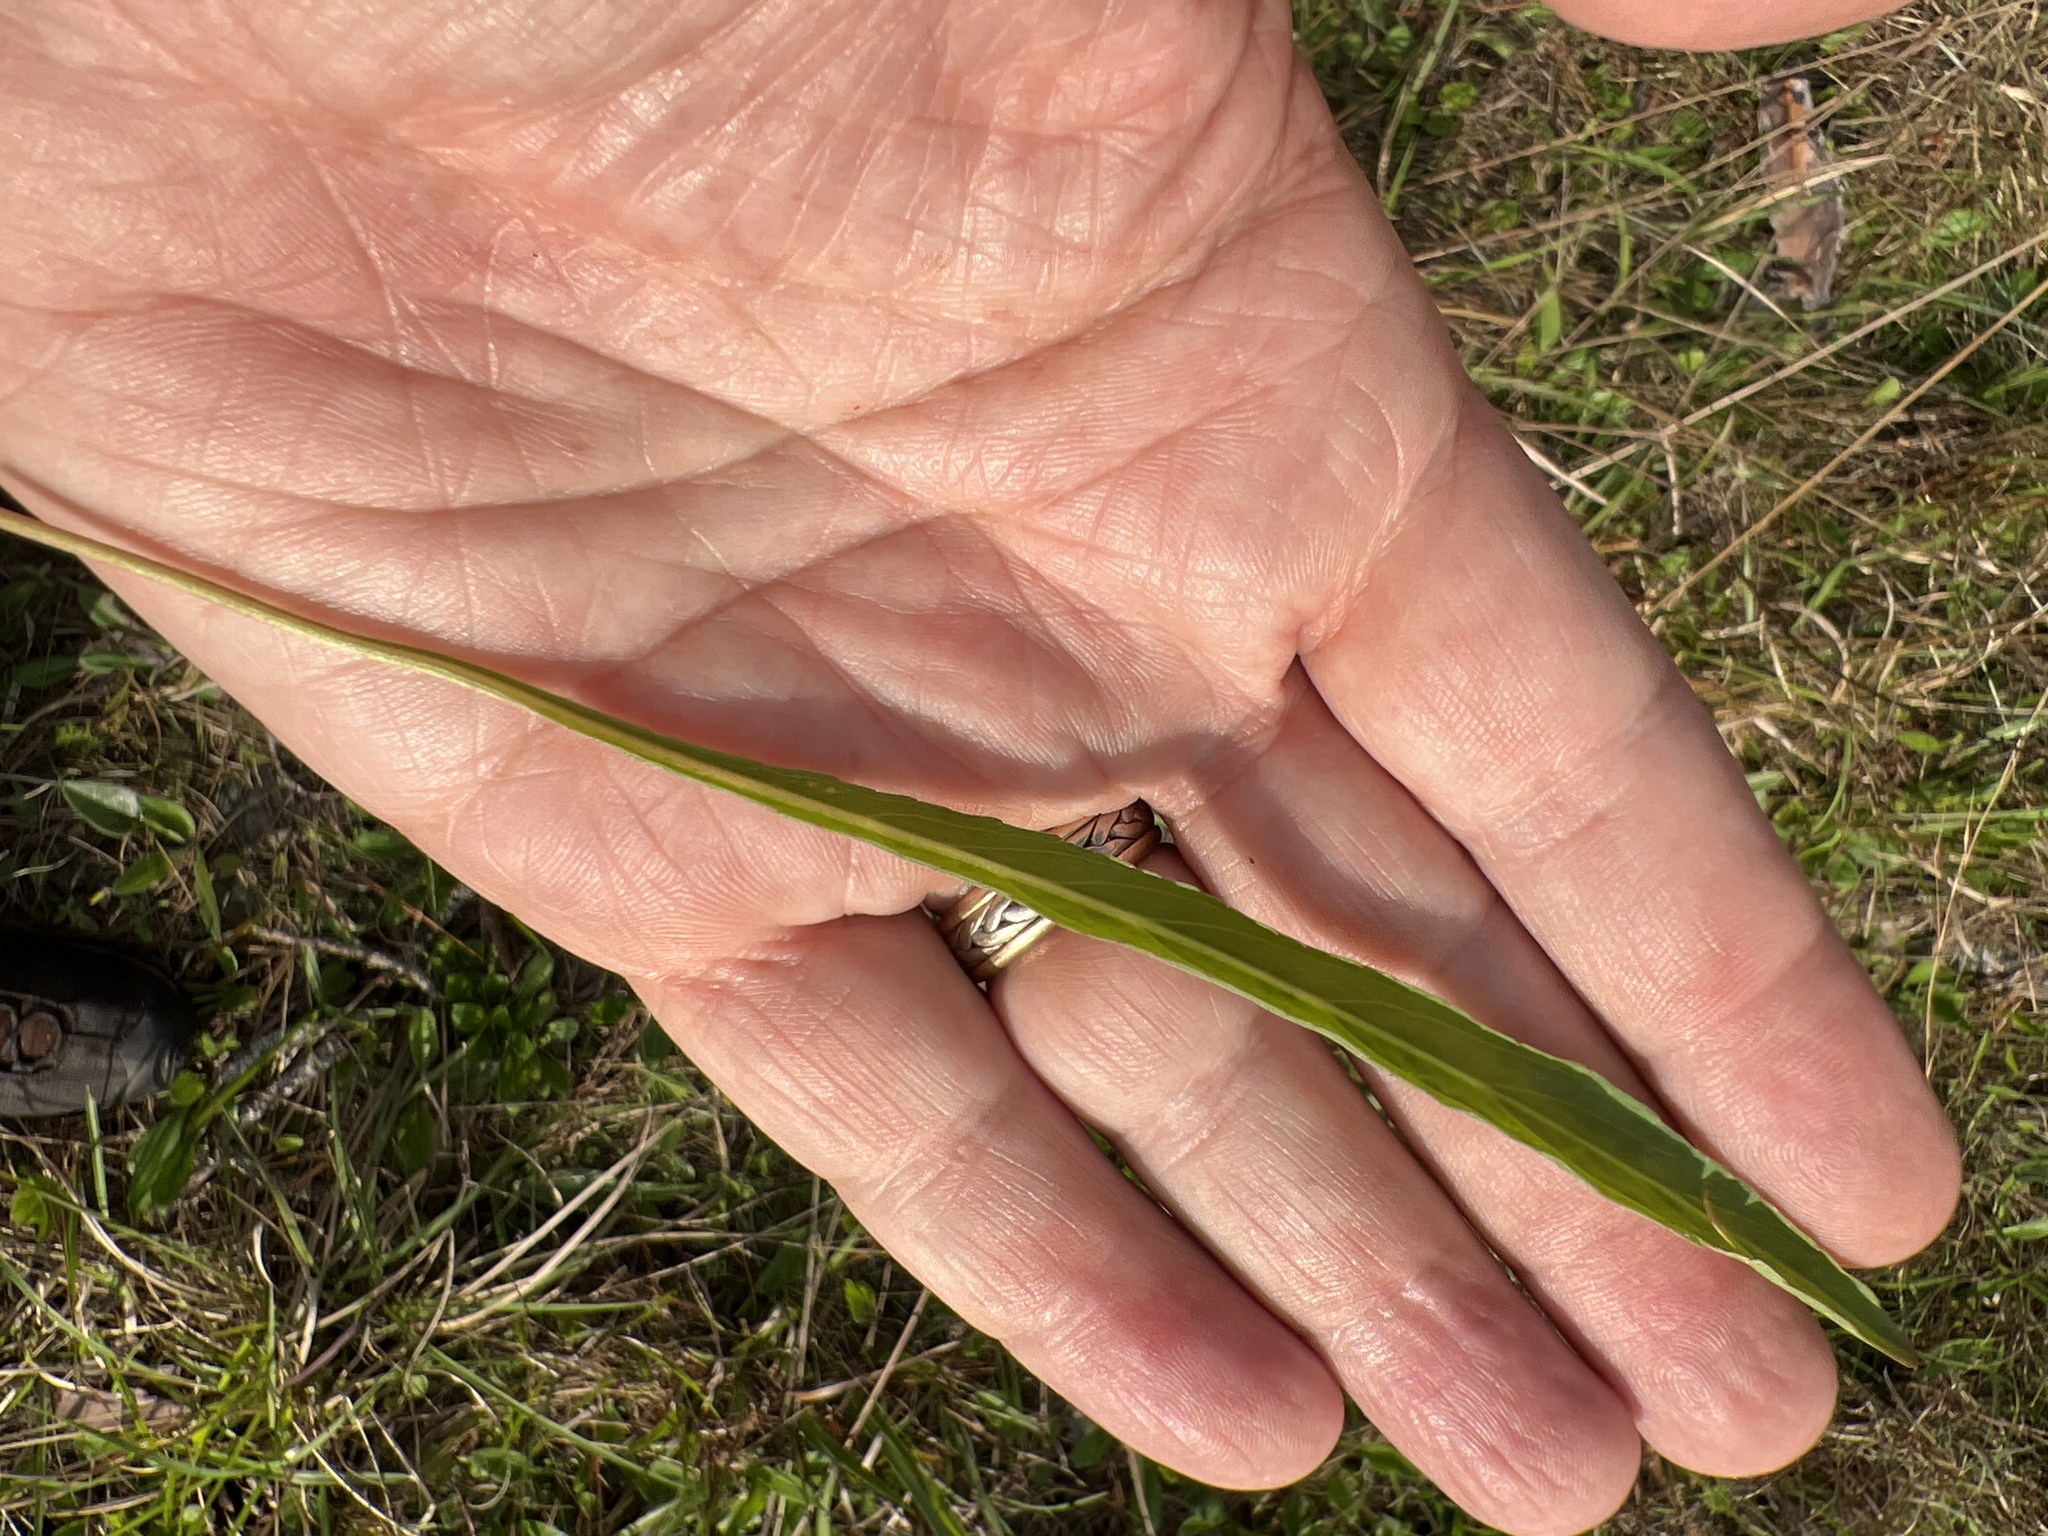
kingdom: Plantae
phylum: Tracheophyta
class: Magnoliopsida
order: Malpighiales
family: Violaceae
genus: Viola
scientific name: Viola vittata
